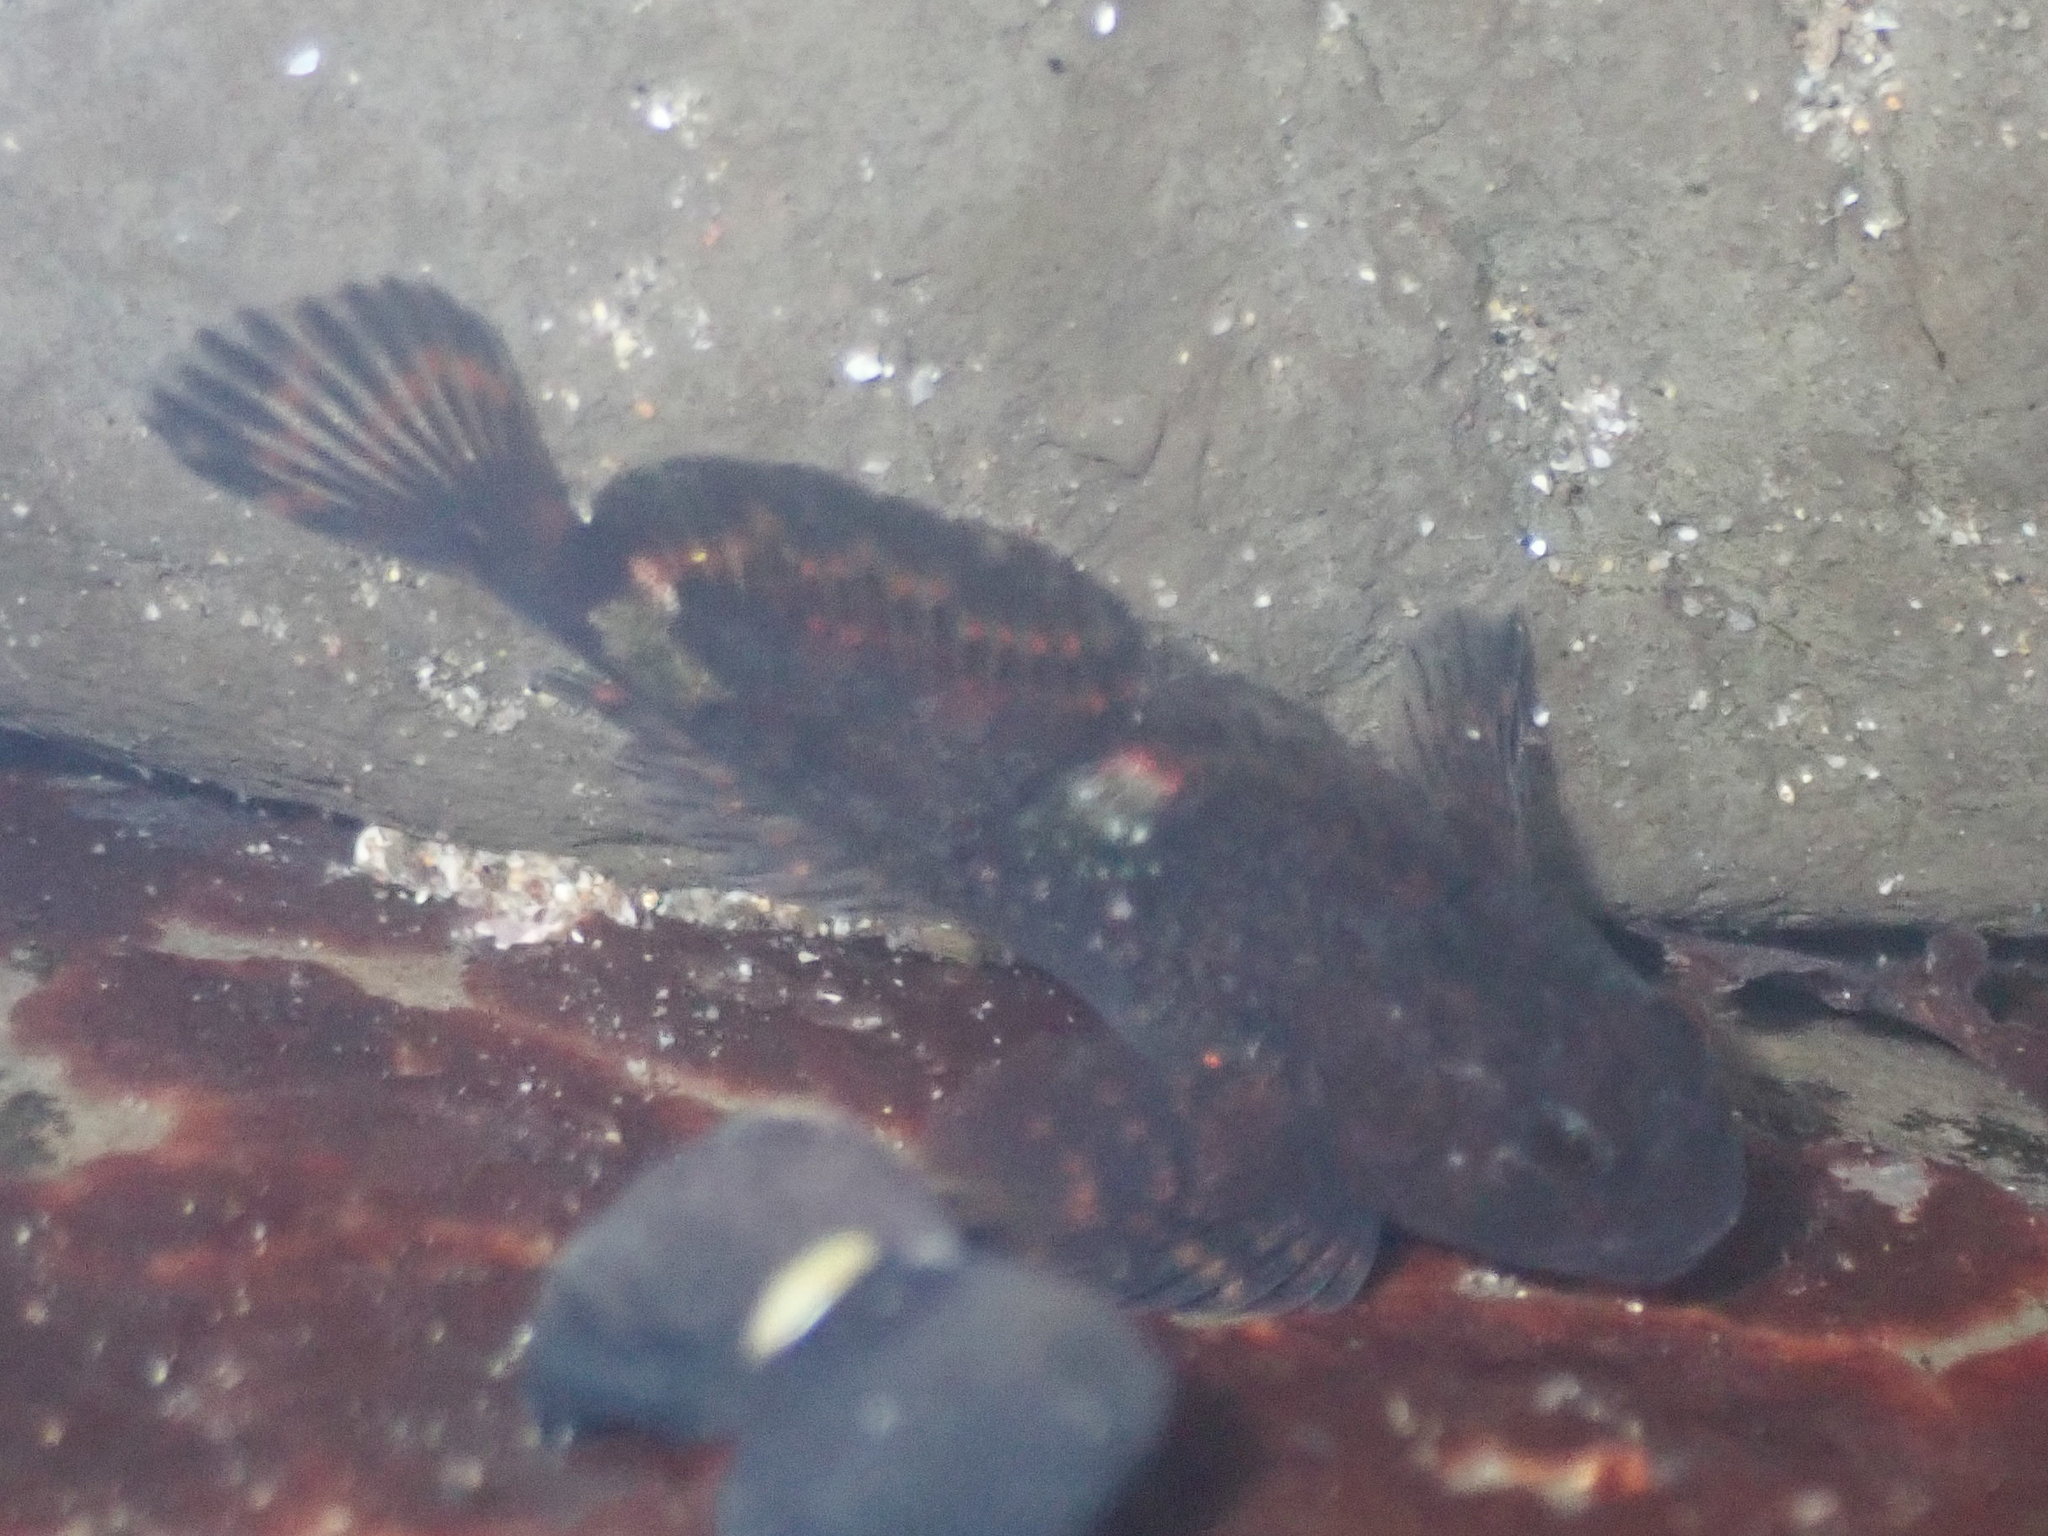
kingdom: Animalia
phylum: Chordata
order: Scorpaeniformes
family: Cottidae
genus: Clinocottus
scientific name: Clinocottus globiceps
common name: Mosshead sculpin
